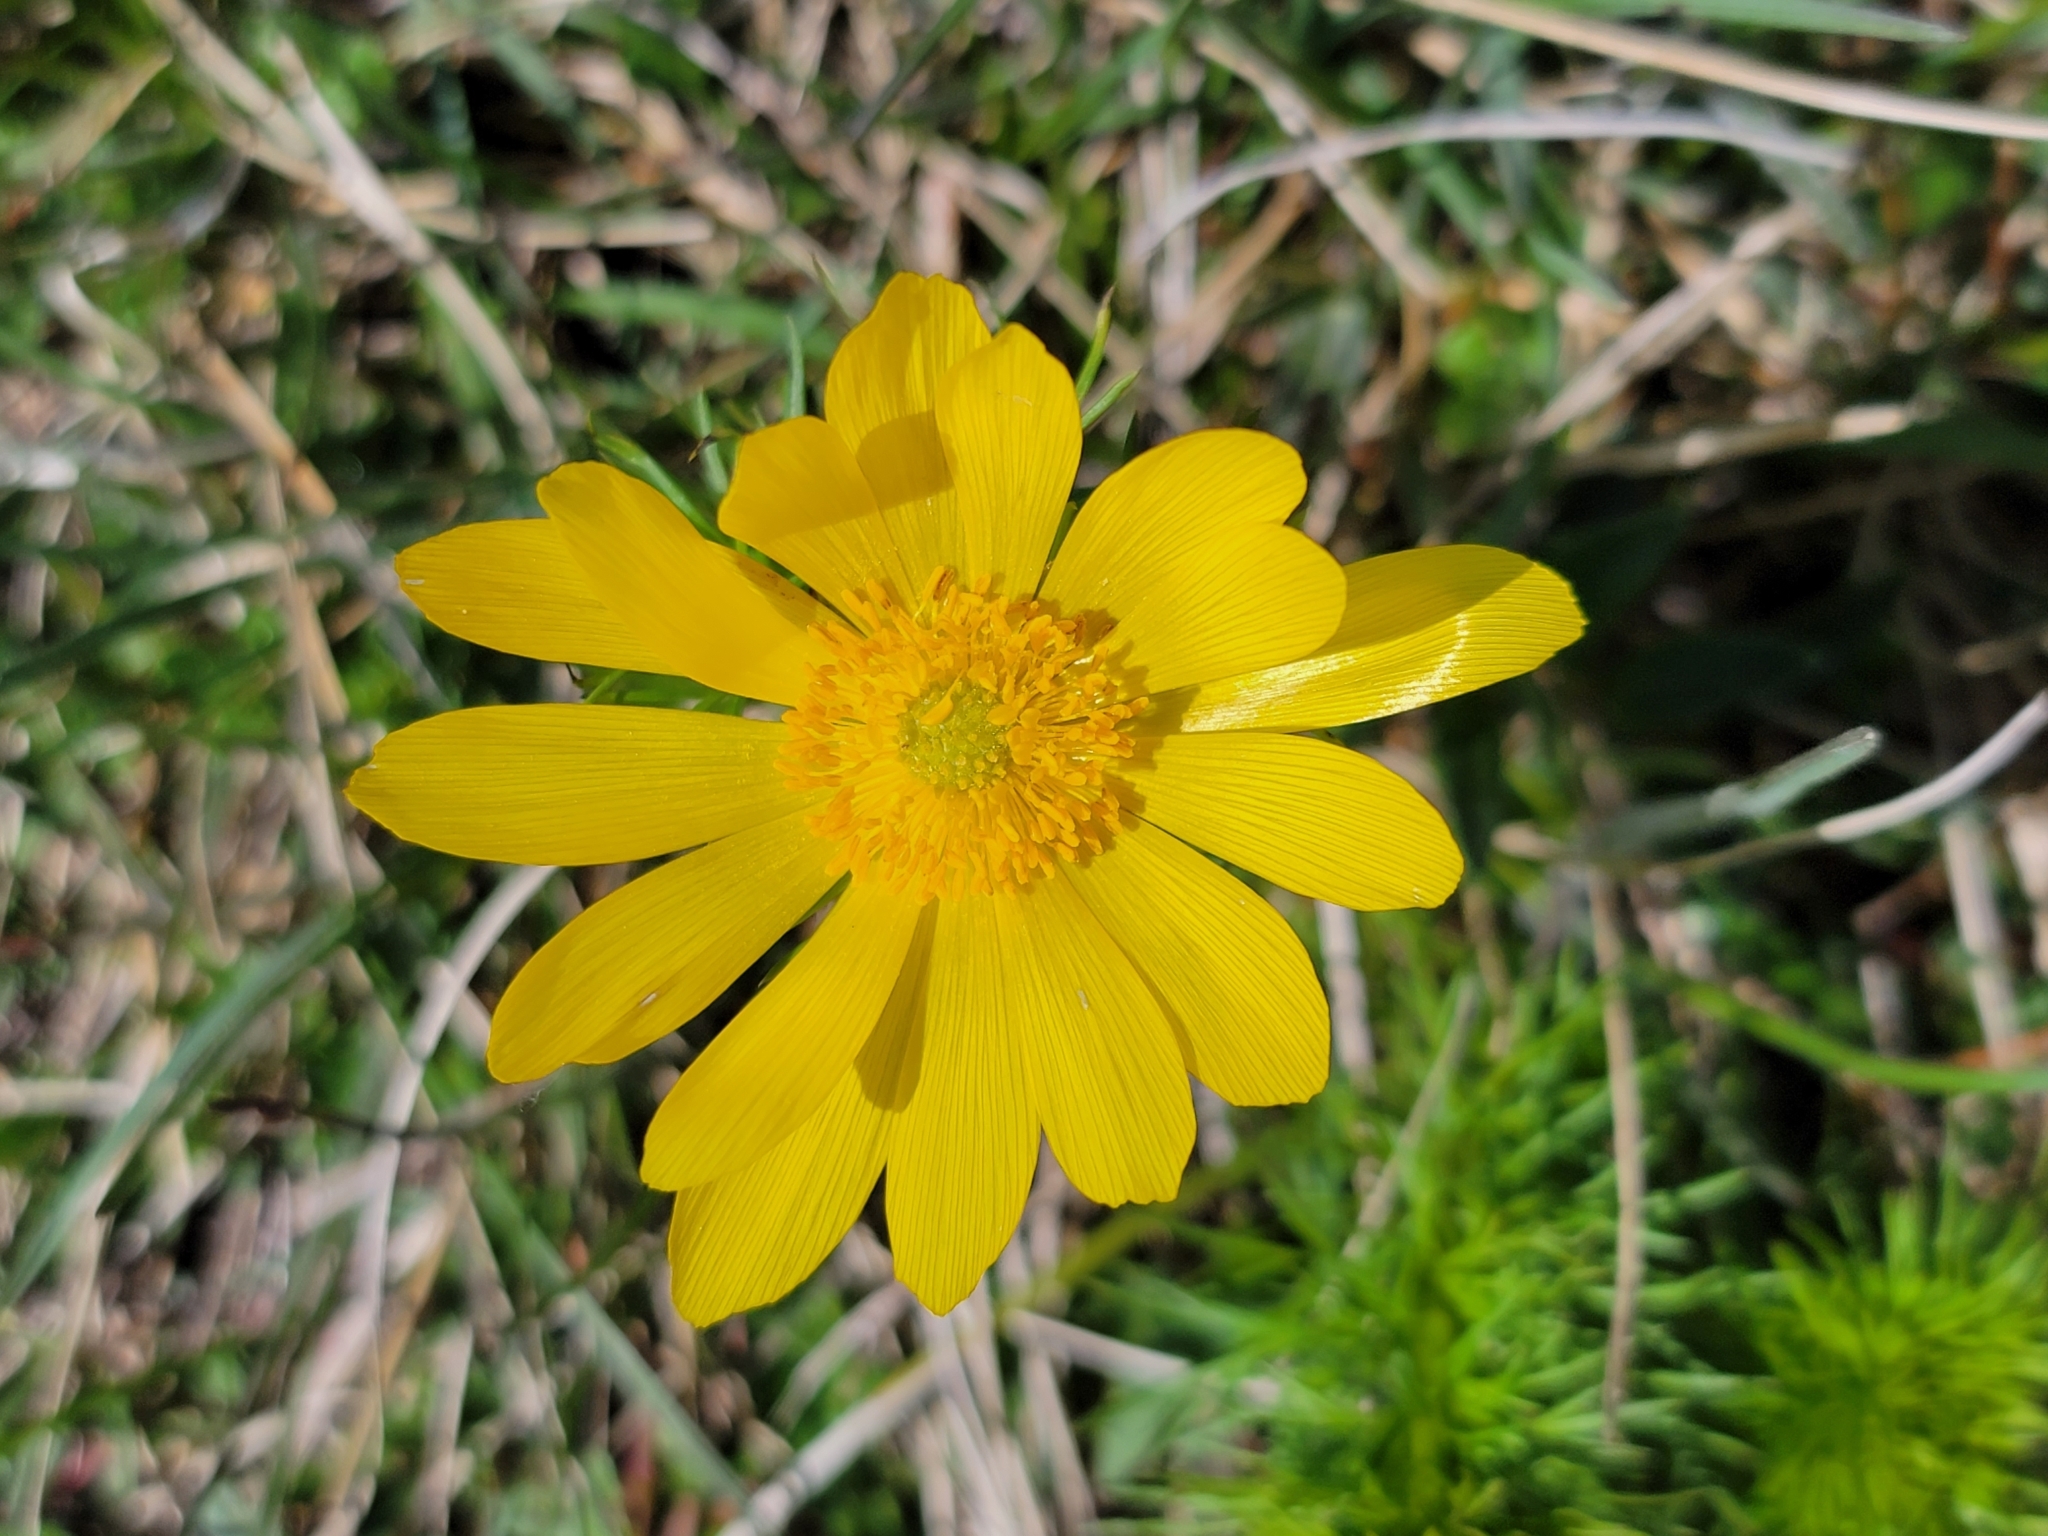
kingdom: Plantae
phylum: Tracheophyta
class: Magnoliopsida
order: Ranunculales
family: Ranunculaceae
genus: Adonis
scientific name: Adonis vernalis
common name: Yellow pheasants-eye
